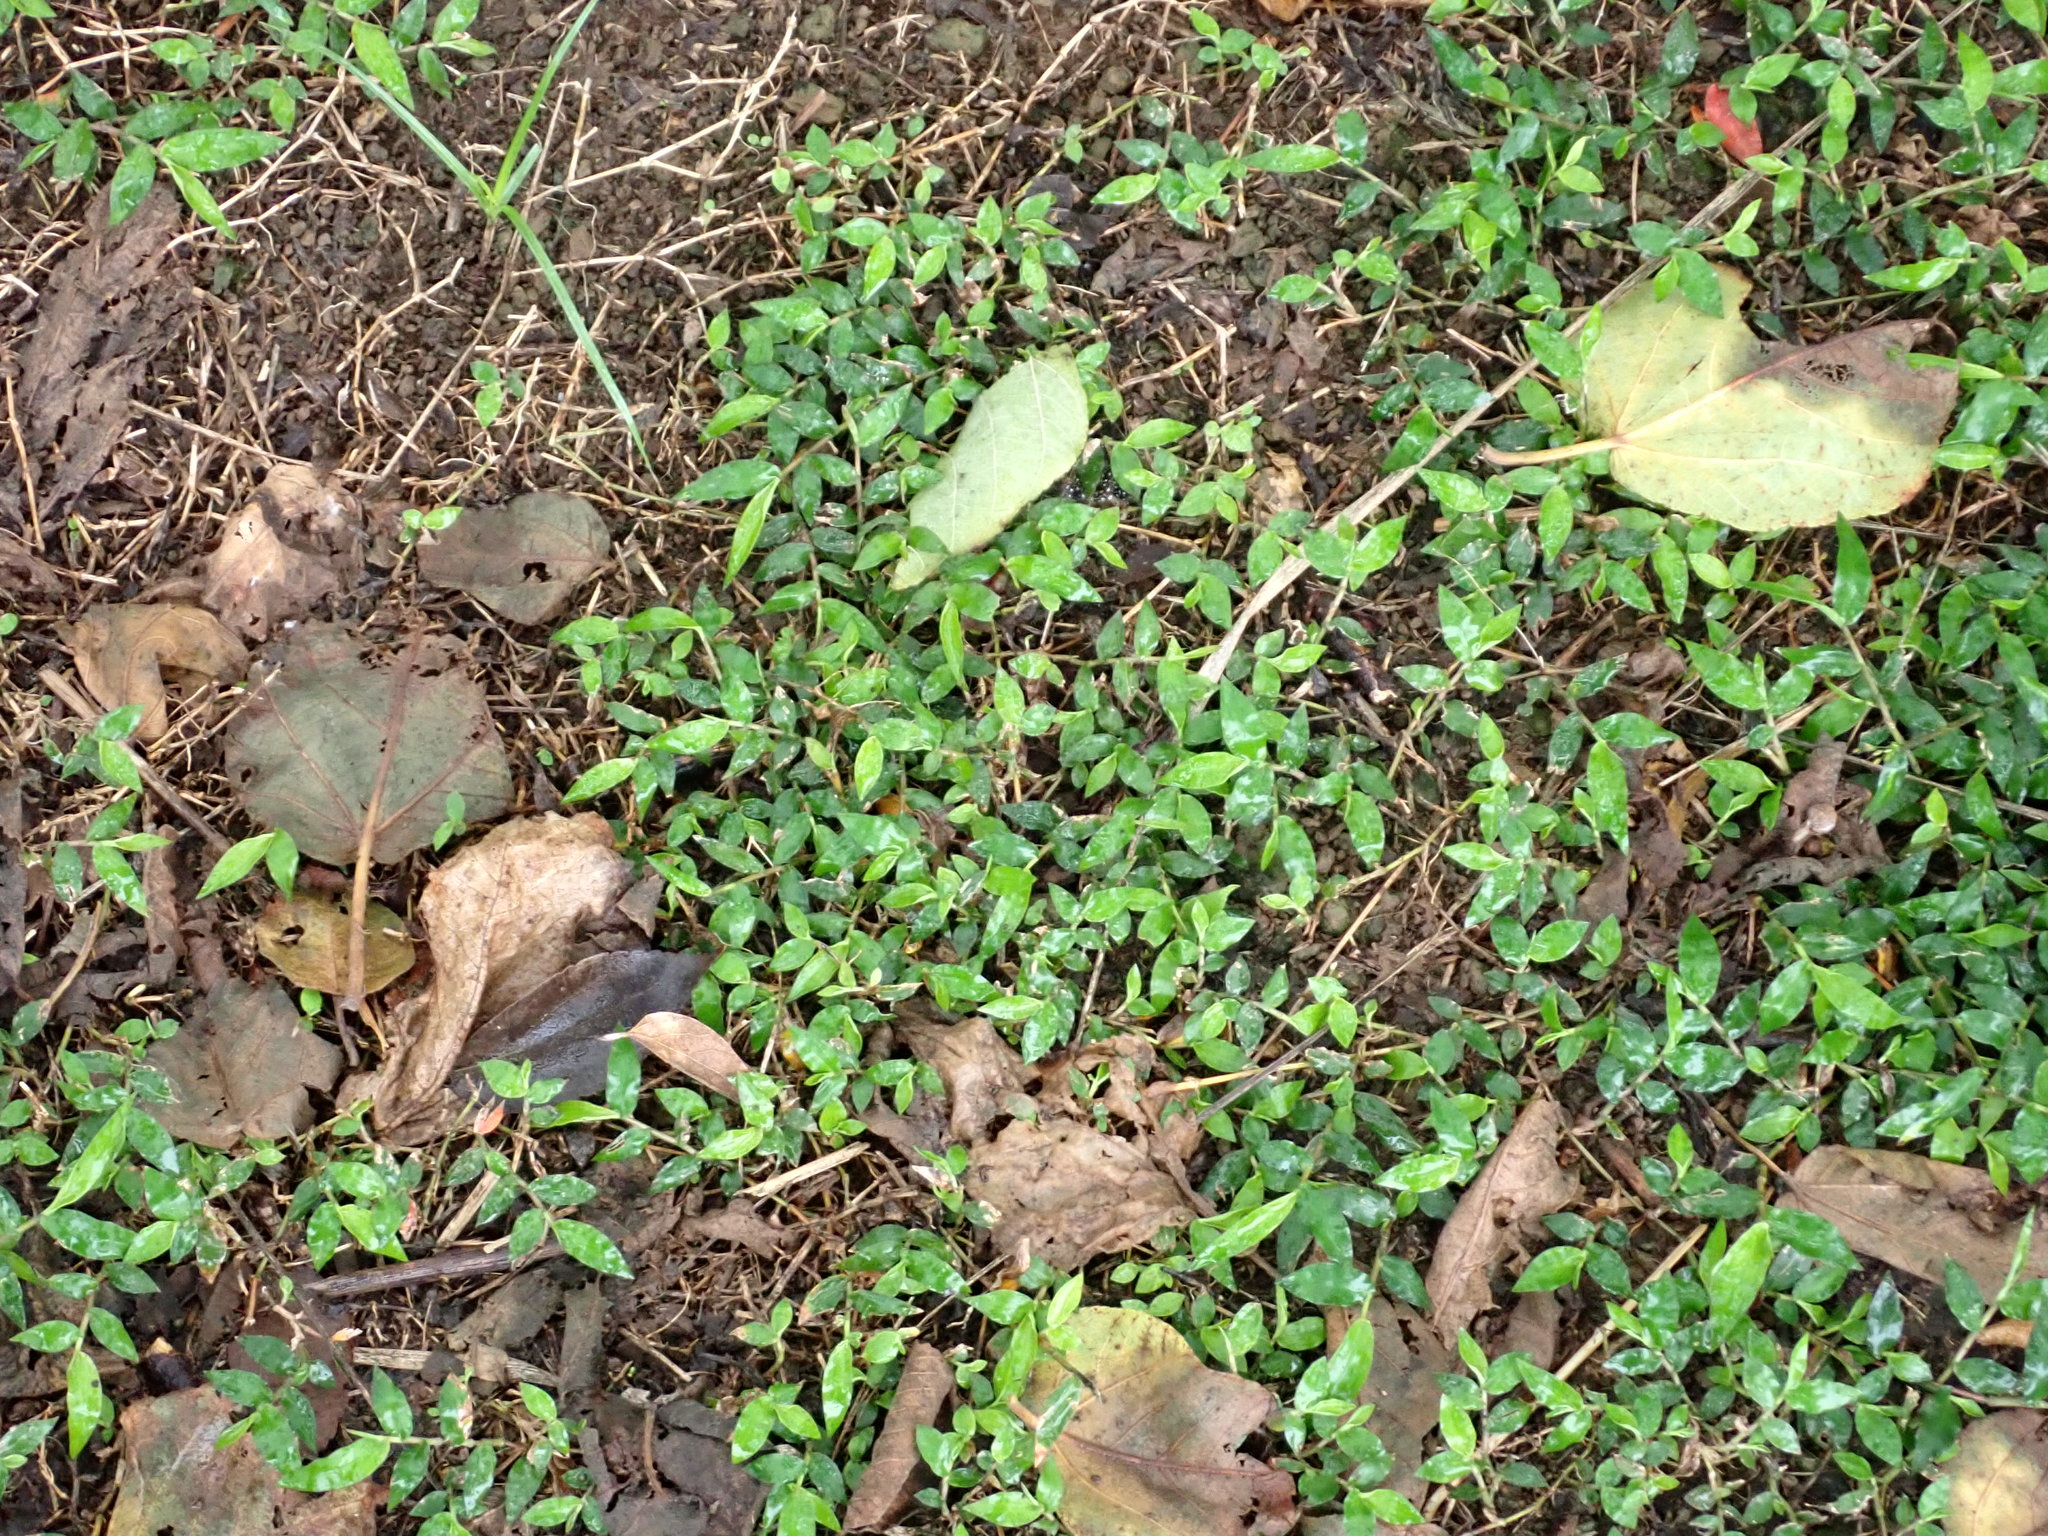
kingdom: Plantae
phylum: Tracheophyta
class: Liliopsida
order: Poales
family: Poaceae
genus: Oplismenus
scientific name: Oplismenus compositus
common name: Running mountain grass
